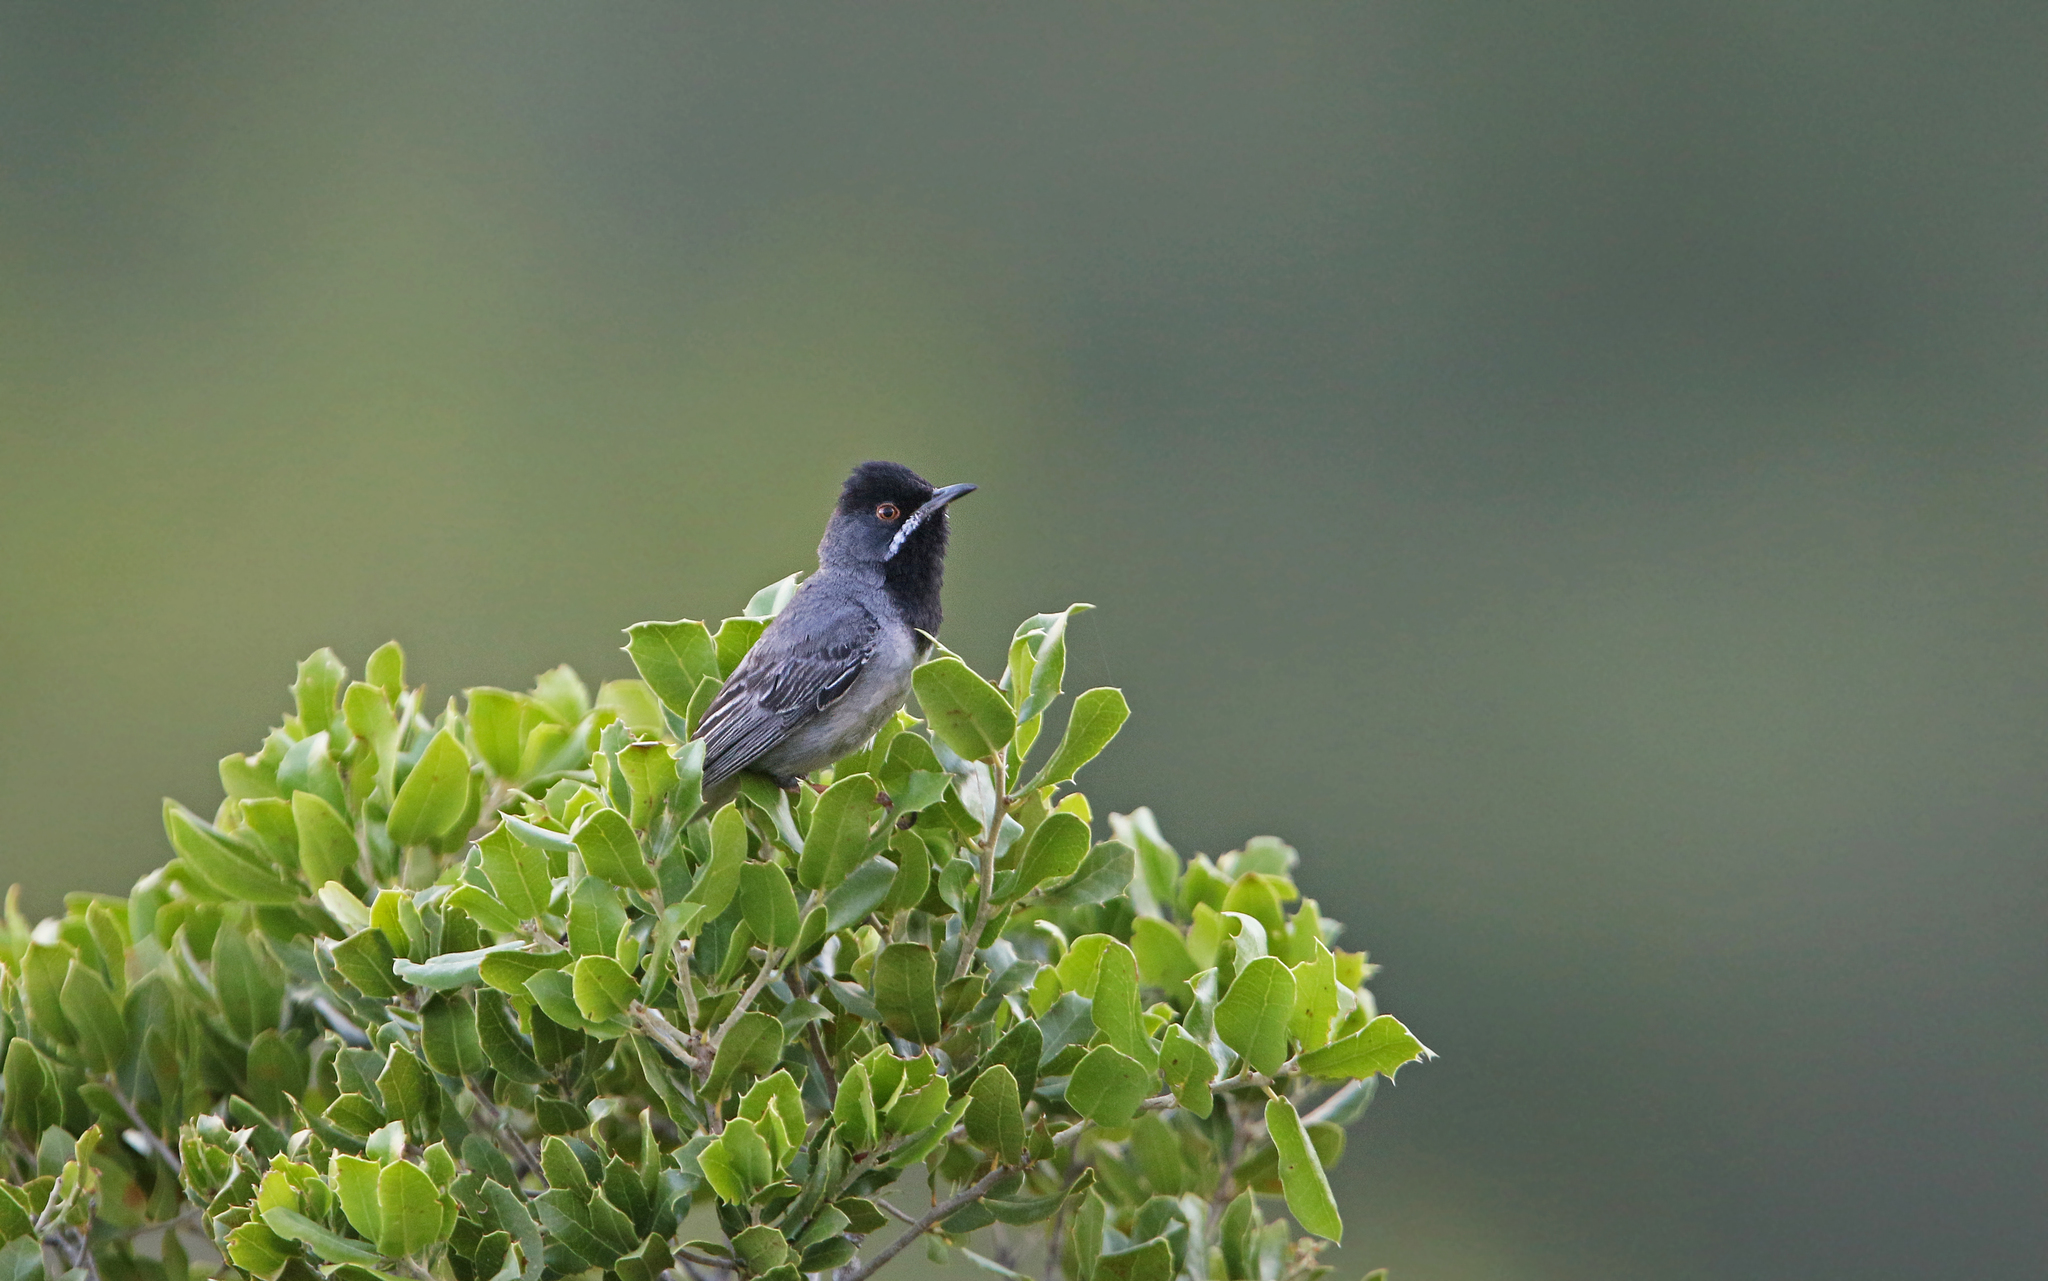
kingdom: Animalia
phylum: Chordata
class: Aves
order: Passeriformes
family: Sylviidae
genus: Sylvia
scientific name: Sylvia ruppeli
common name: Rüppell's warbler
